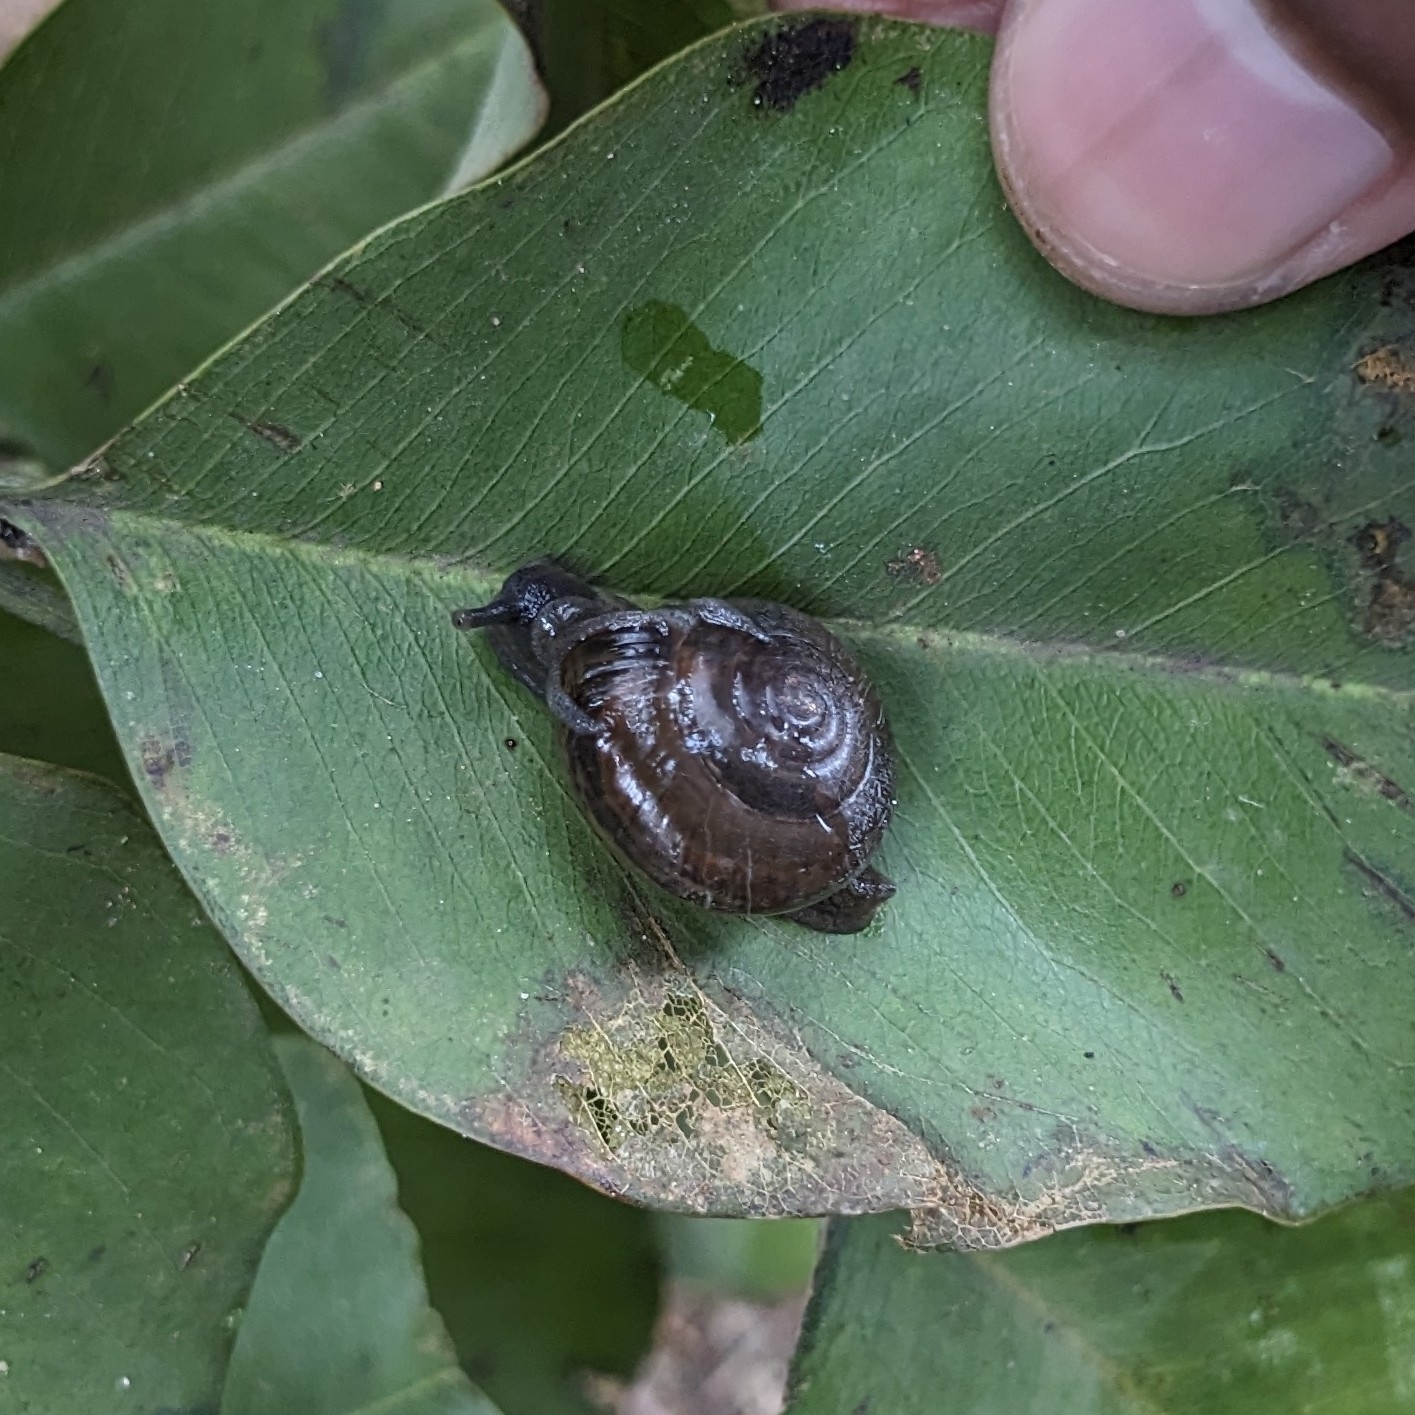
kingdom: Animalia
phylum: Mollusca
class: Gastropoda
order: Stylommatophora
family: Ariophantidae
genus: Macrochlamys
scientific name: Macrochlamys indica
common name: Horntail snail
